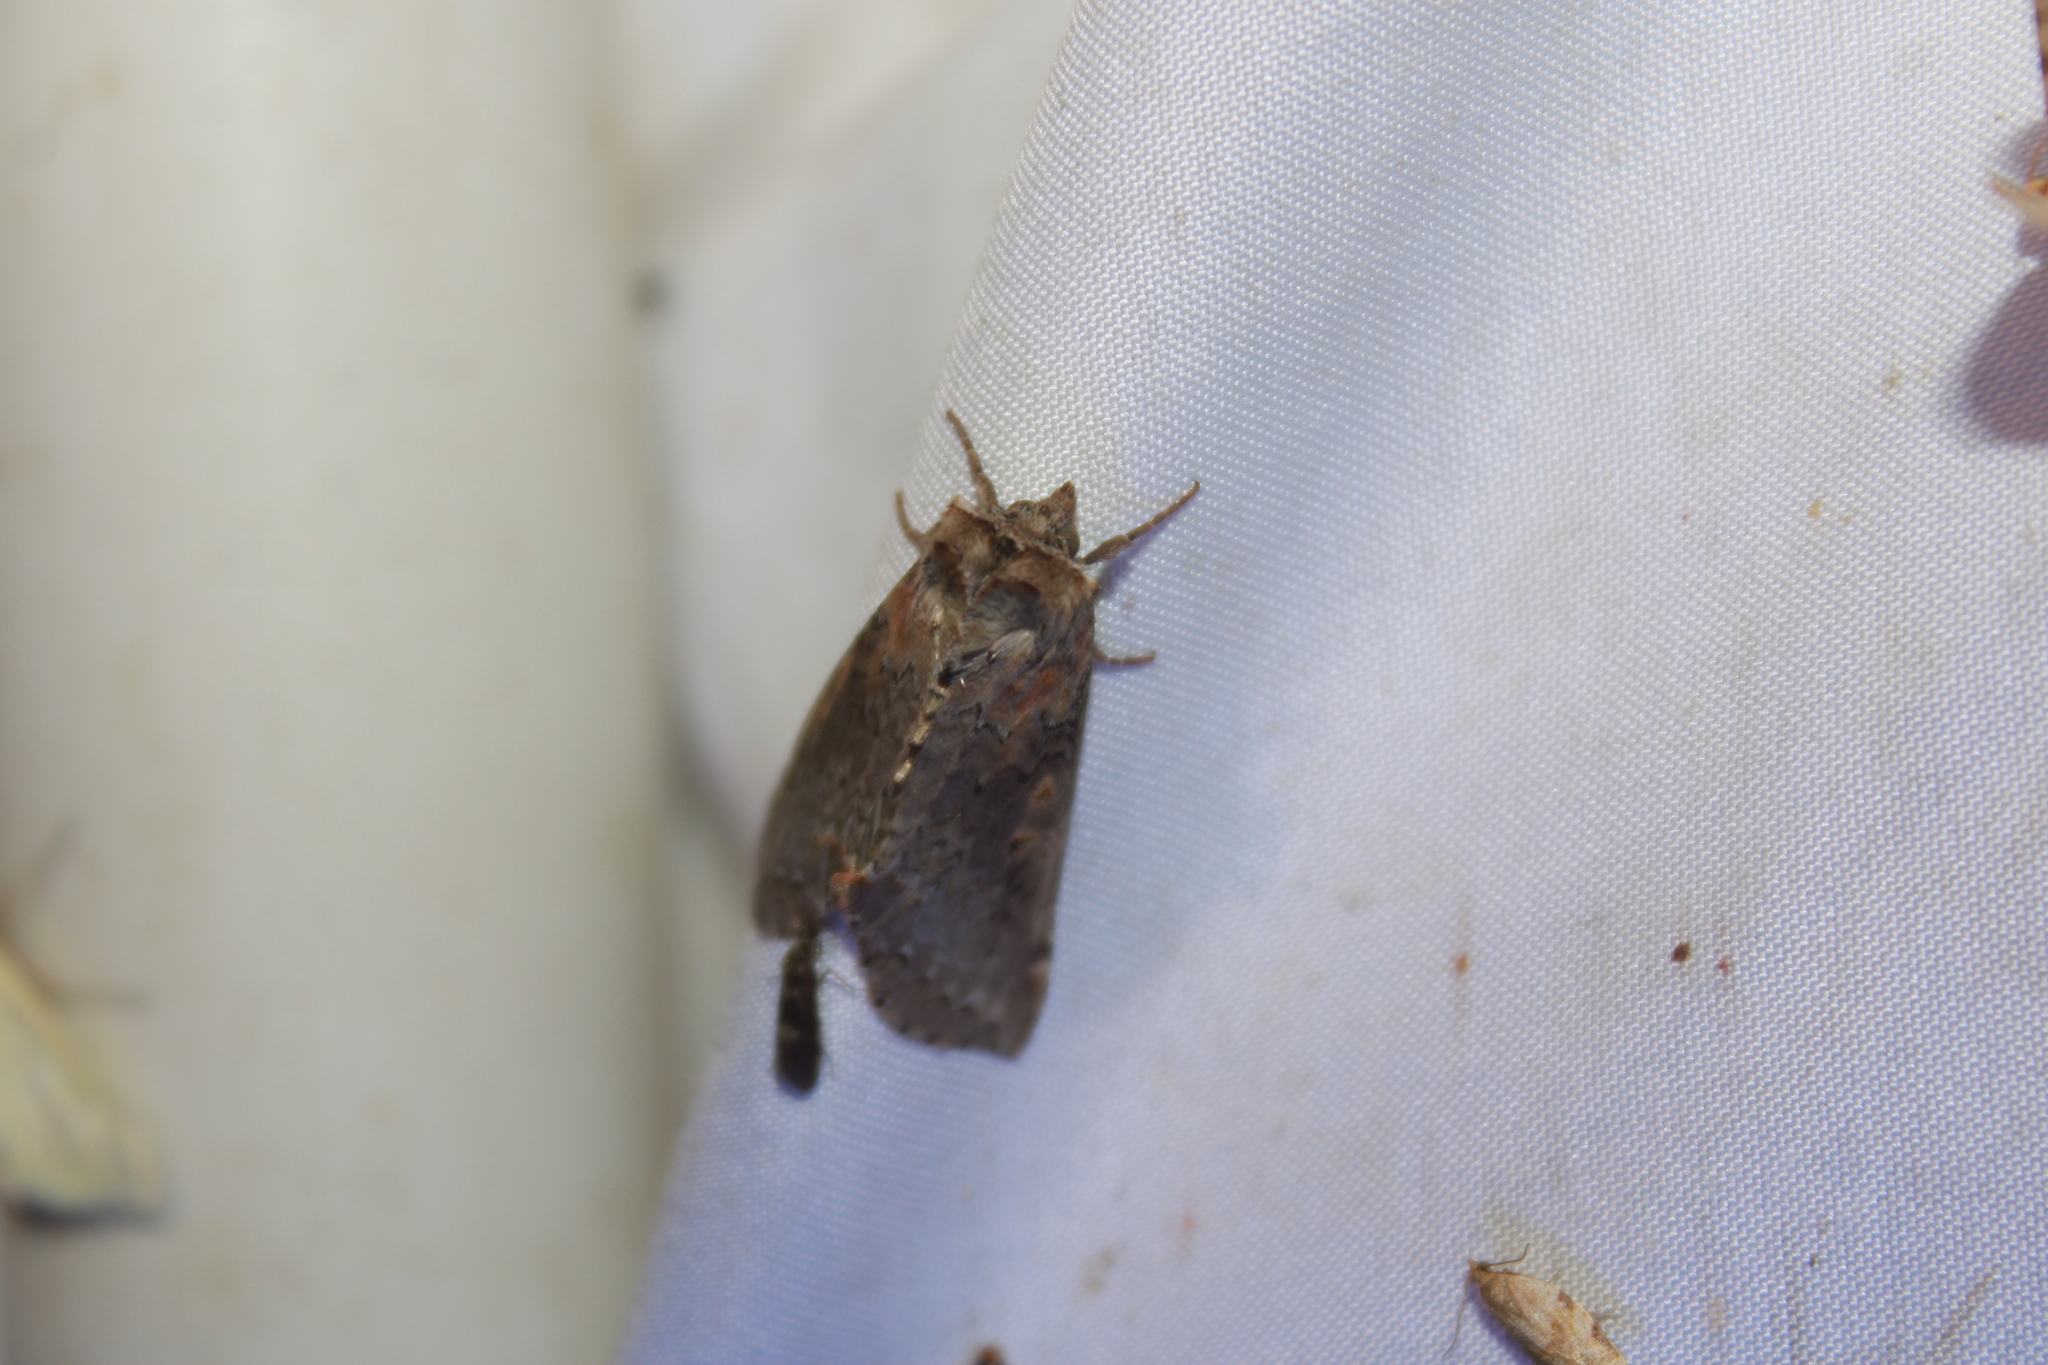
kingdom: Animalia
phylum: Arthropoda
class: Insecta
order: Lepidoptera
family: Drepanidae
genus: Pseudothyatira
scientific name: Pseudothyatira cymatophoroides
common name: Tufted thyatirid moth
